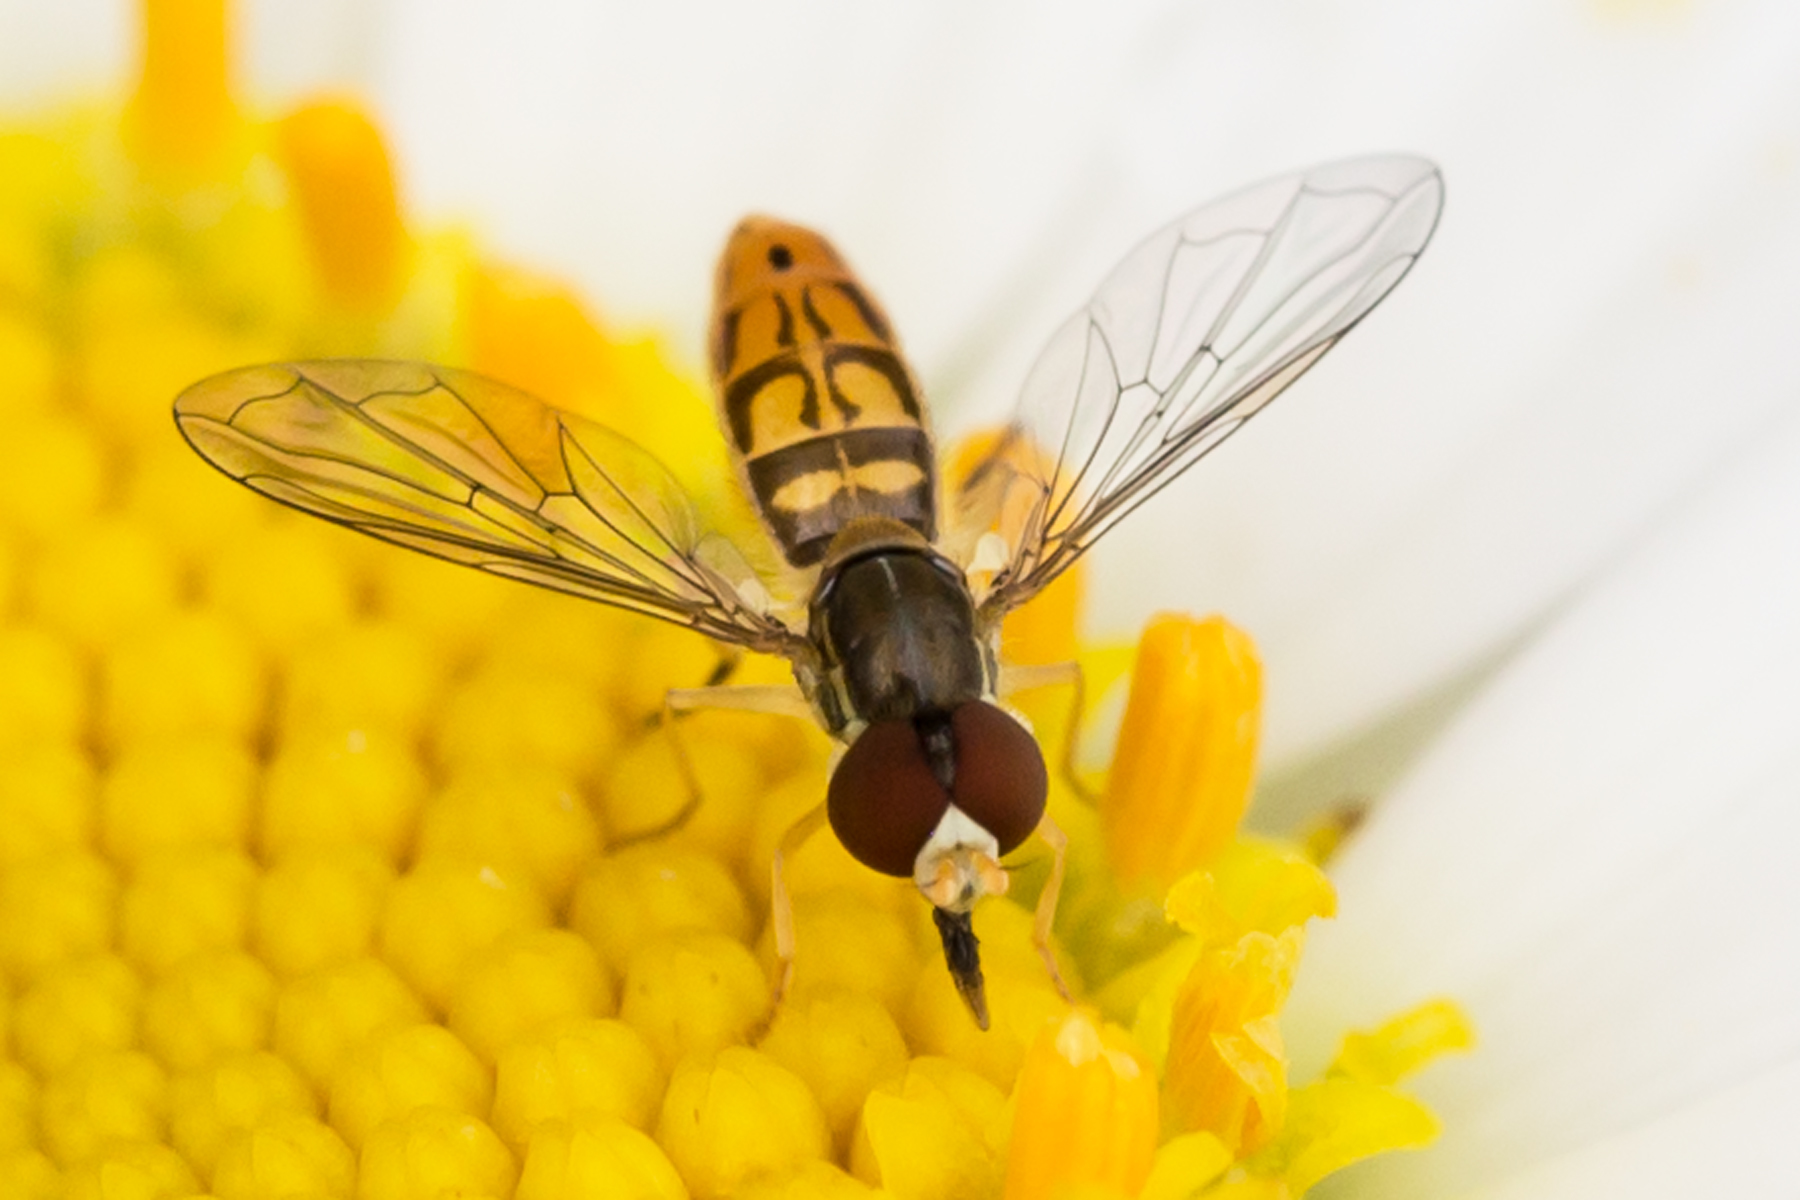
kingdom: Animalia
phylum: Arthropoda
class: Insecta
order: Diptera
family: Syrphidae
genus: Toxomerus
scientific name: Toxomerus marginatus
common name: Syrphid fly
